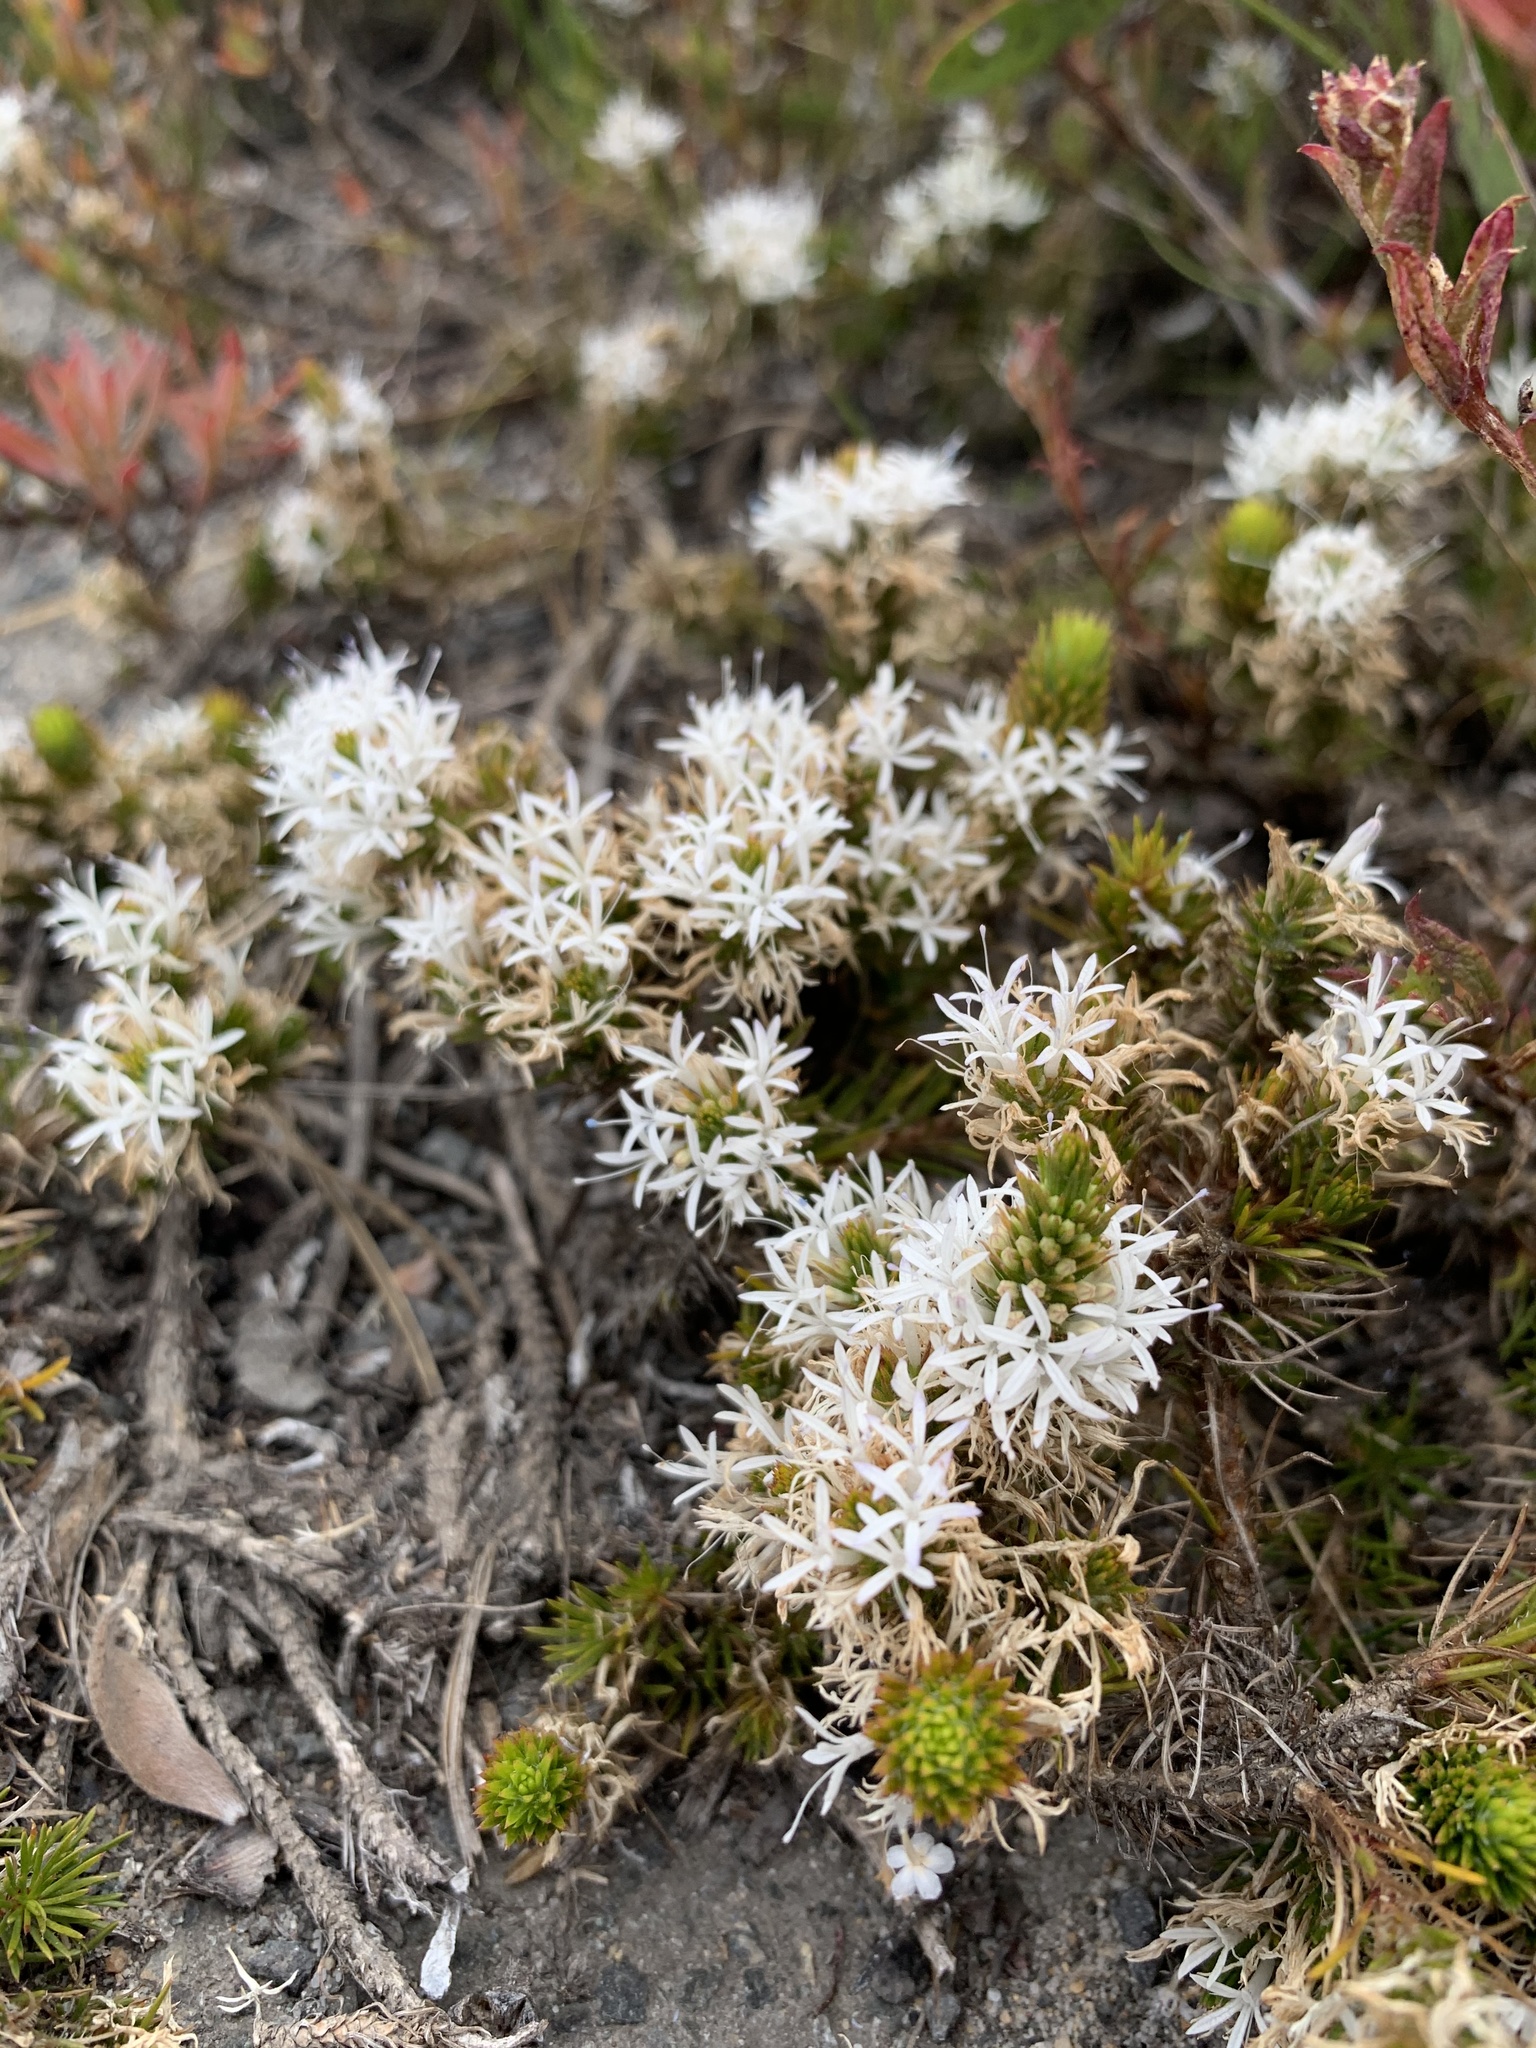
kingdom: Plantae
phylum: Tracheophyta
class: Magnoliopsida
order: Asterales
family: Campanulaceae
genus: Merciera
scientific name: Merciera leptoloba
